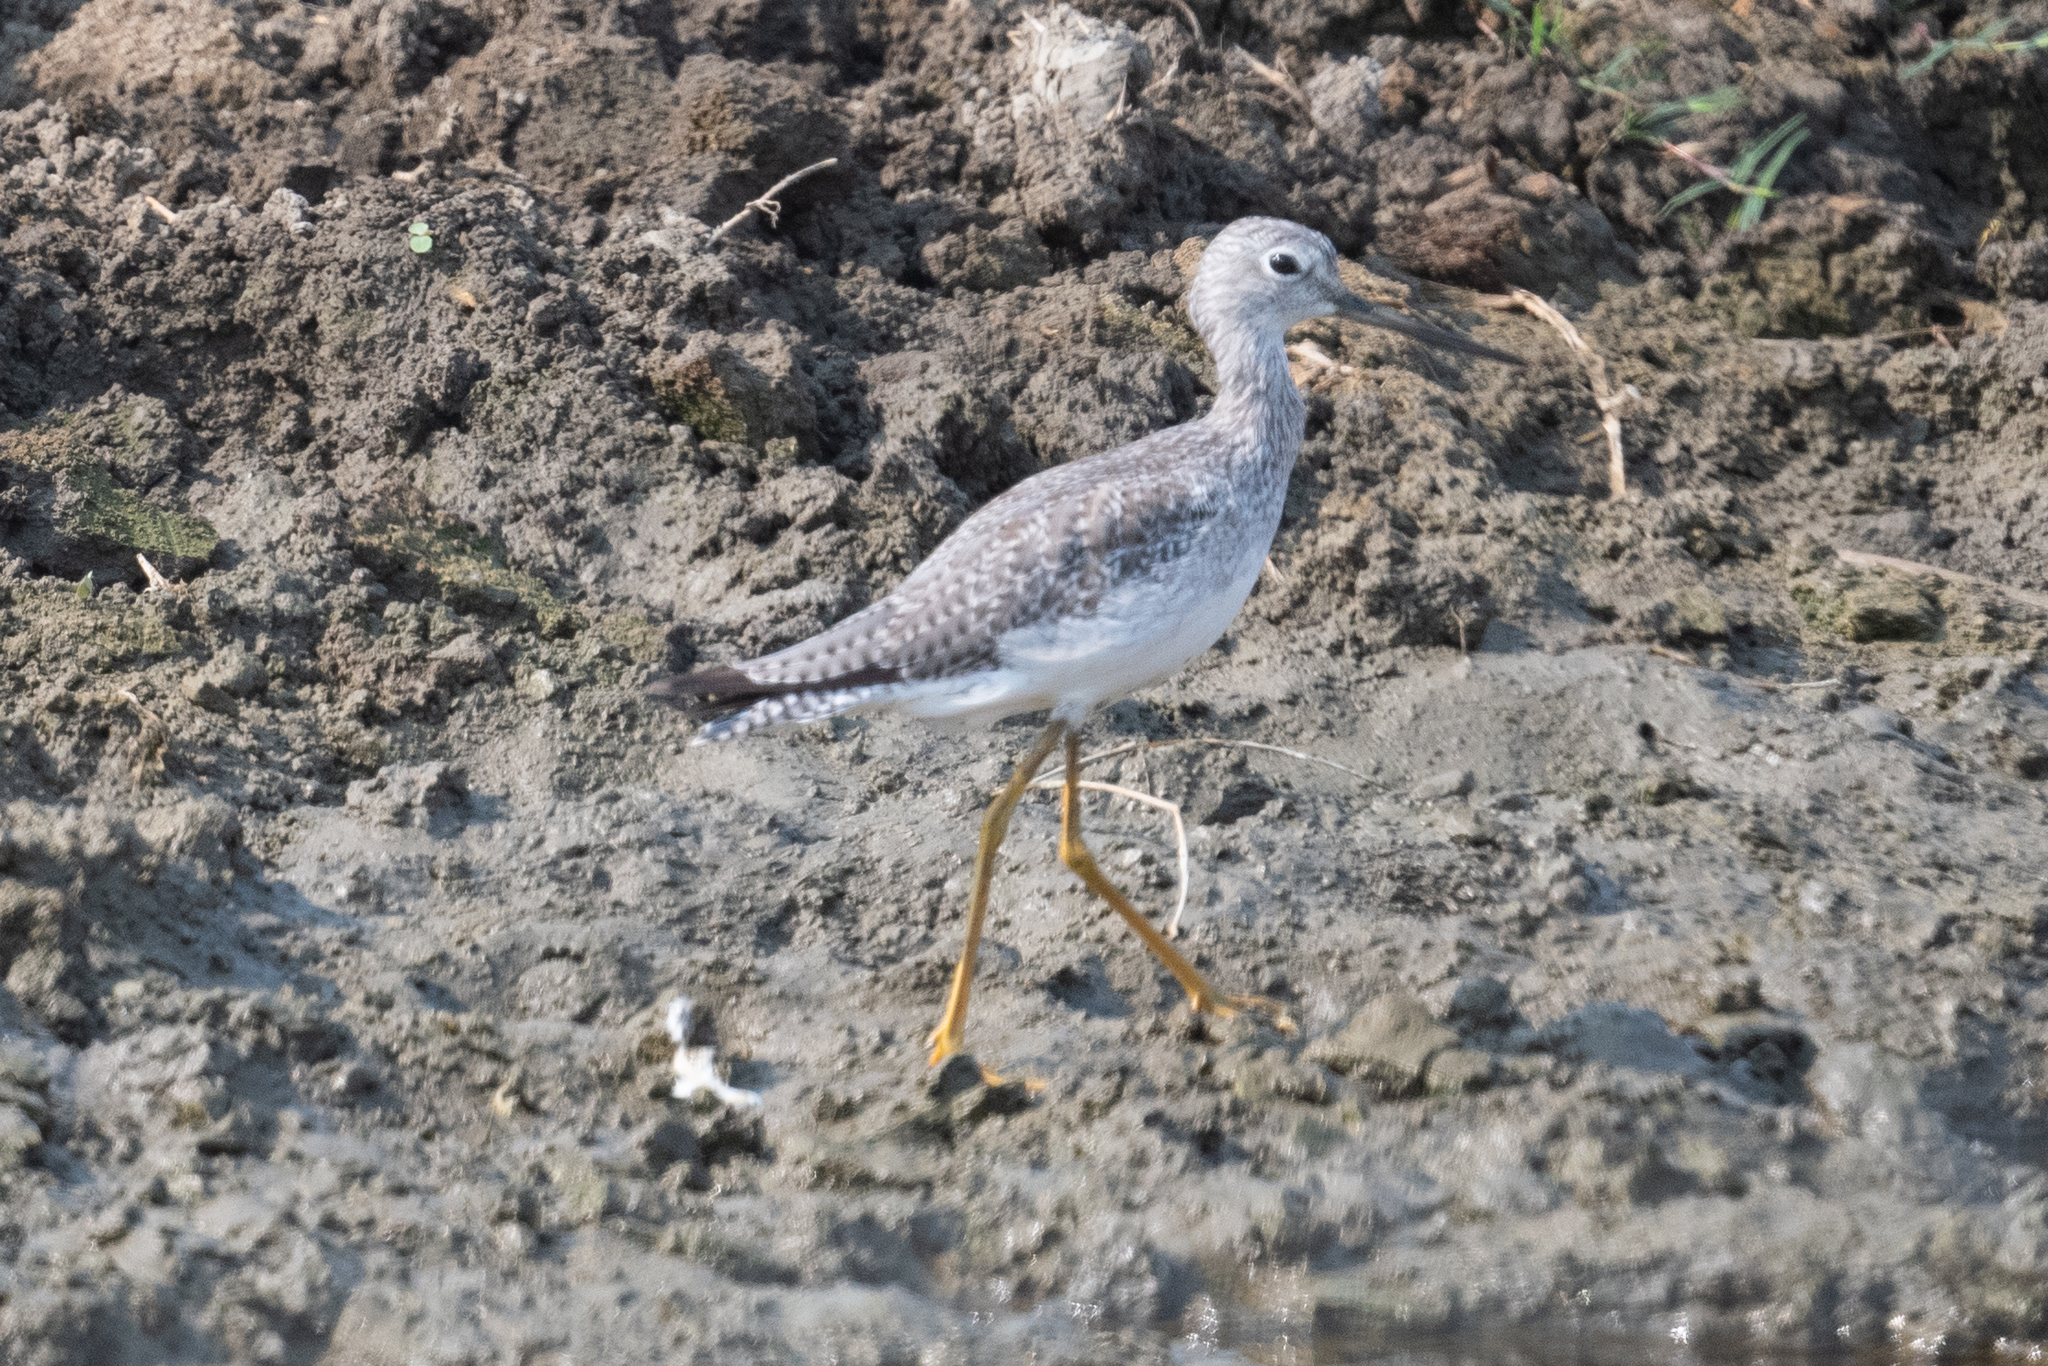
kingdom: Animalia
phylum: Chordata
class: Aves
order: Charadriiformes
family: Scolopacidae
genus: Tringa
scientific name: Tringa melanoleuca
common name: Greater yellowlegs
